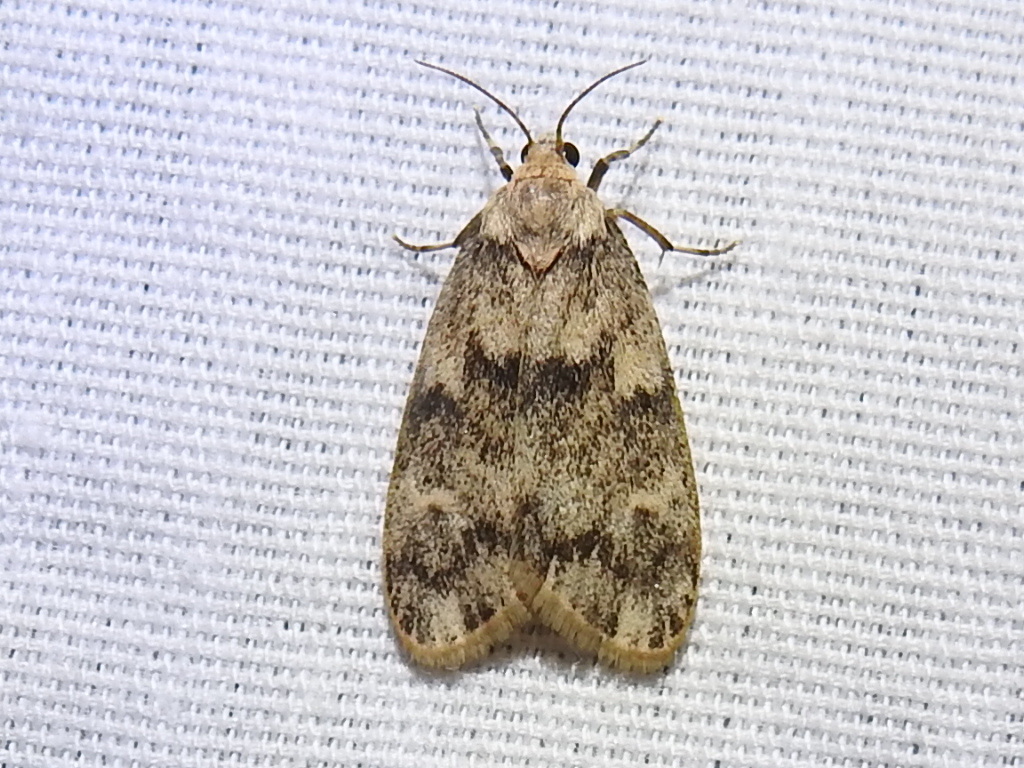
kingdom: Animalia
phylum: Arthropoda
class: Insecta
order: Lepidoptera
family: Erebidae
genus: Bruceia
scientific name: Bruceia hubbardi
